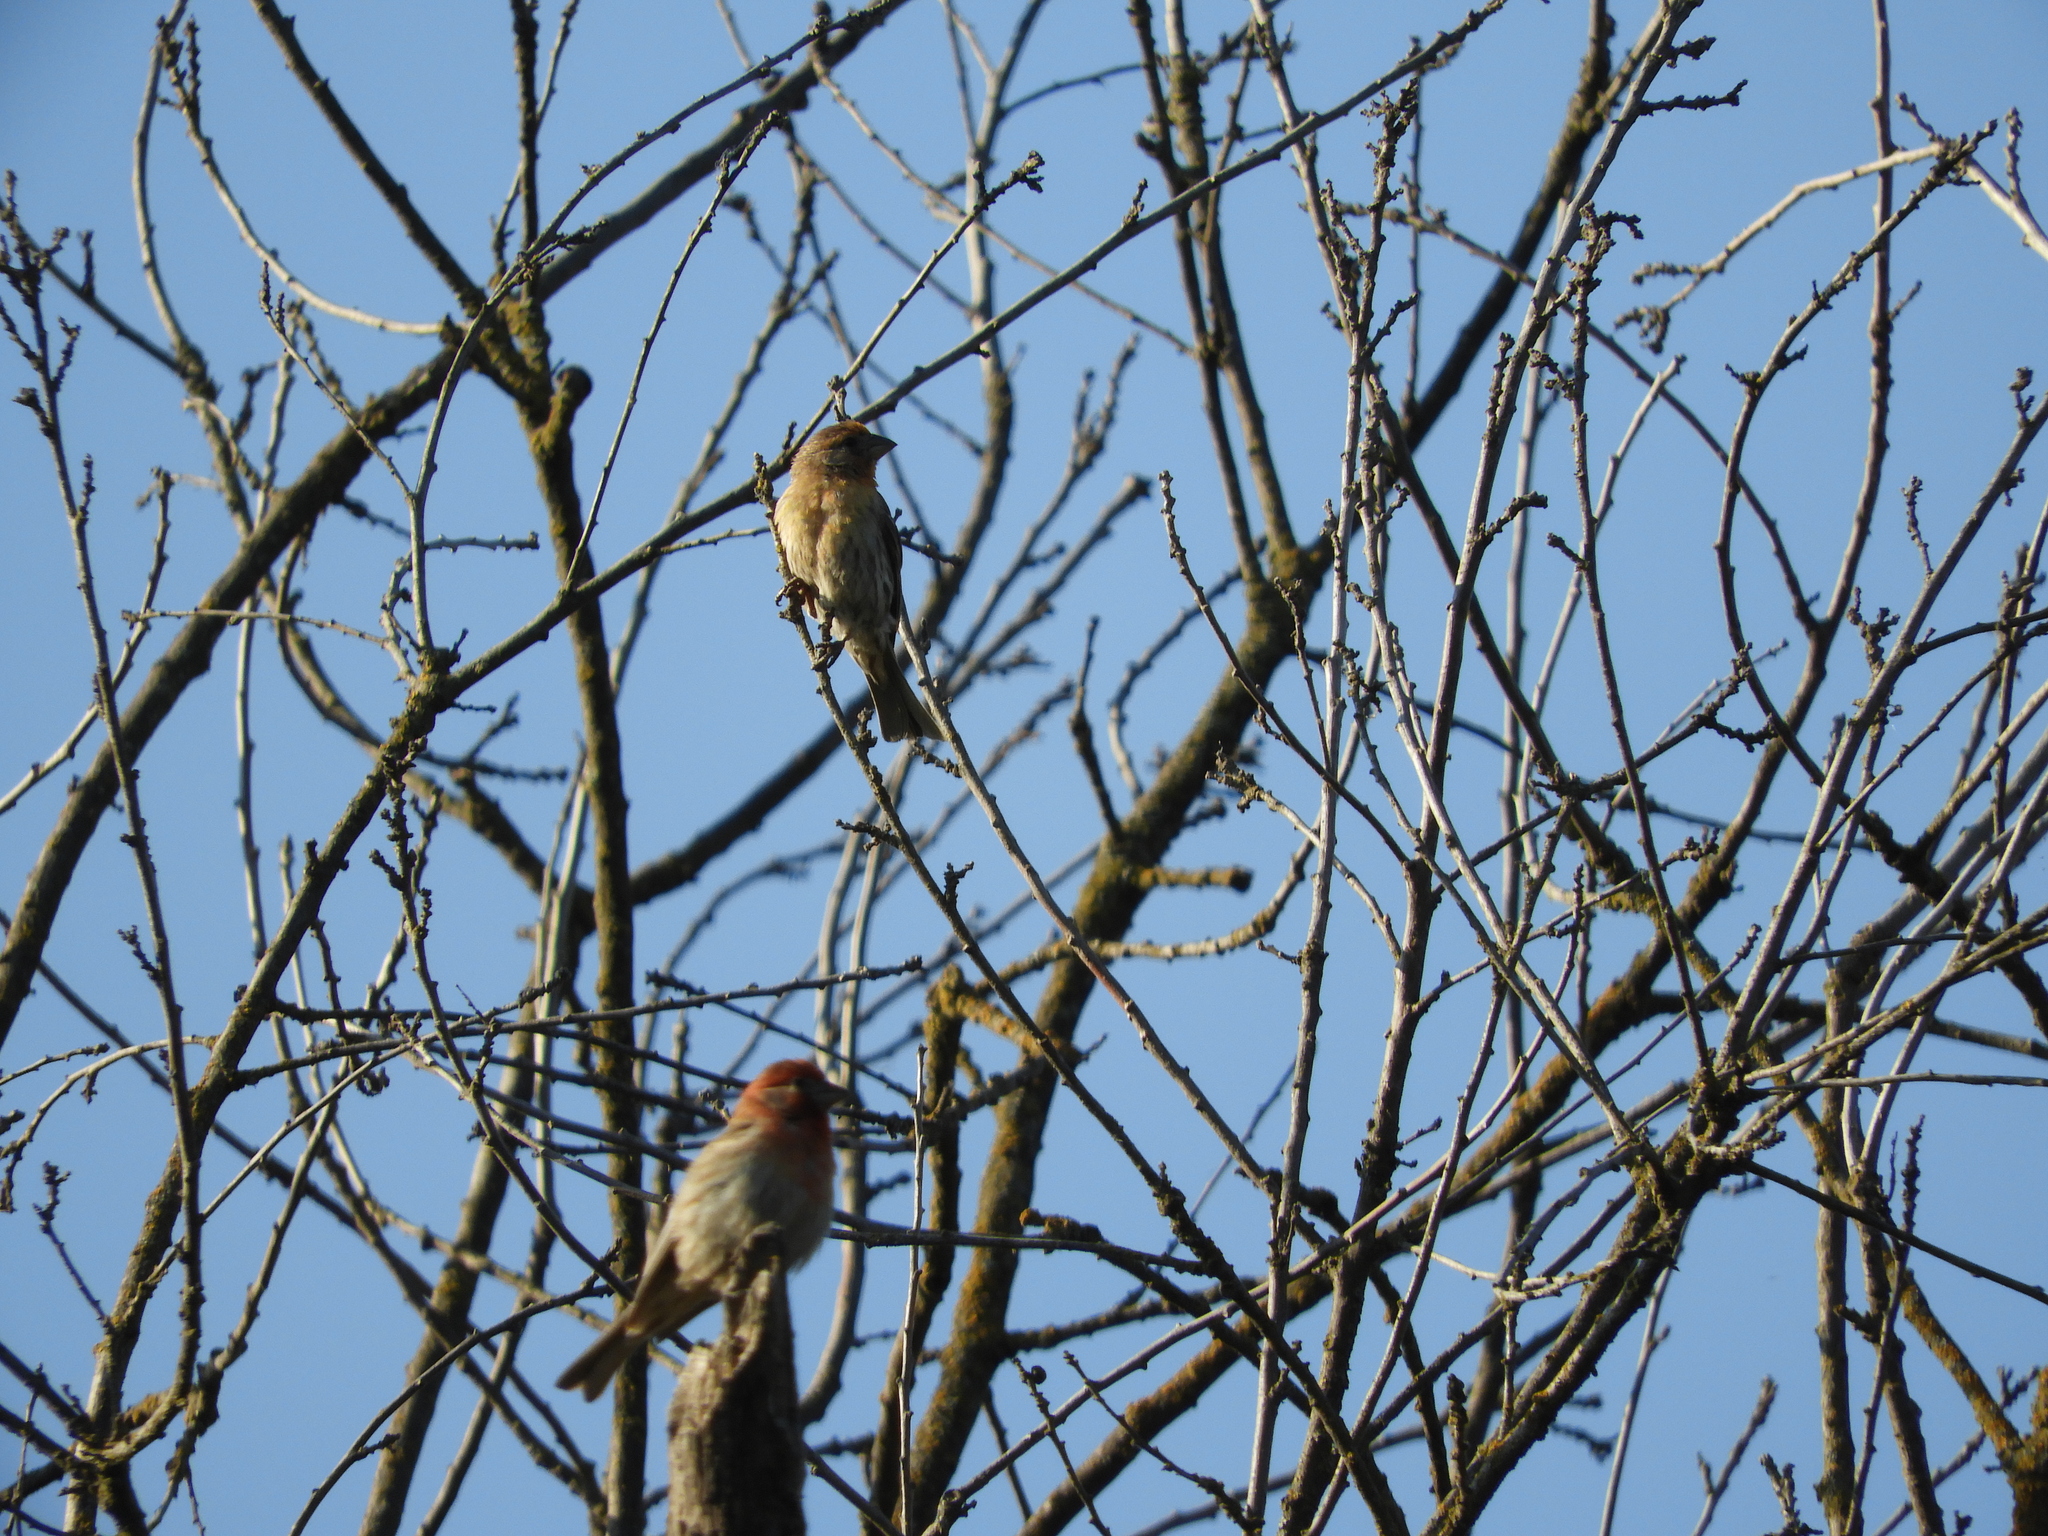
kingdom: Animalia
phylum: Chordata
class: Aves
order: Passeriformes
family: Fringillidae
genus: Haemorhous
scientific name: Haemorhous mexicanus
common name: House finch
